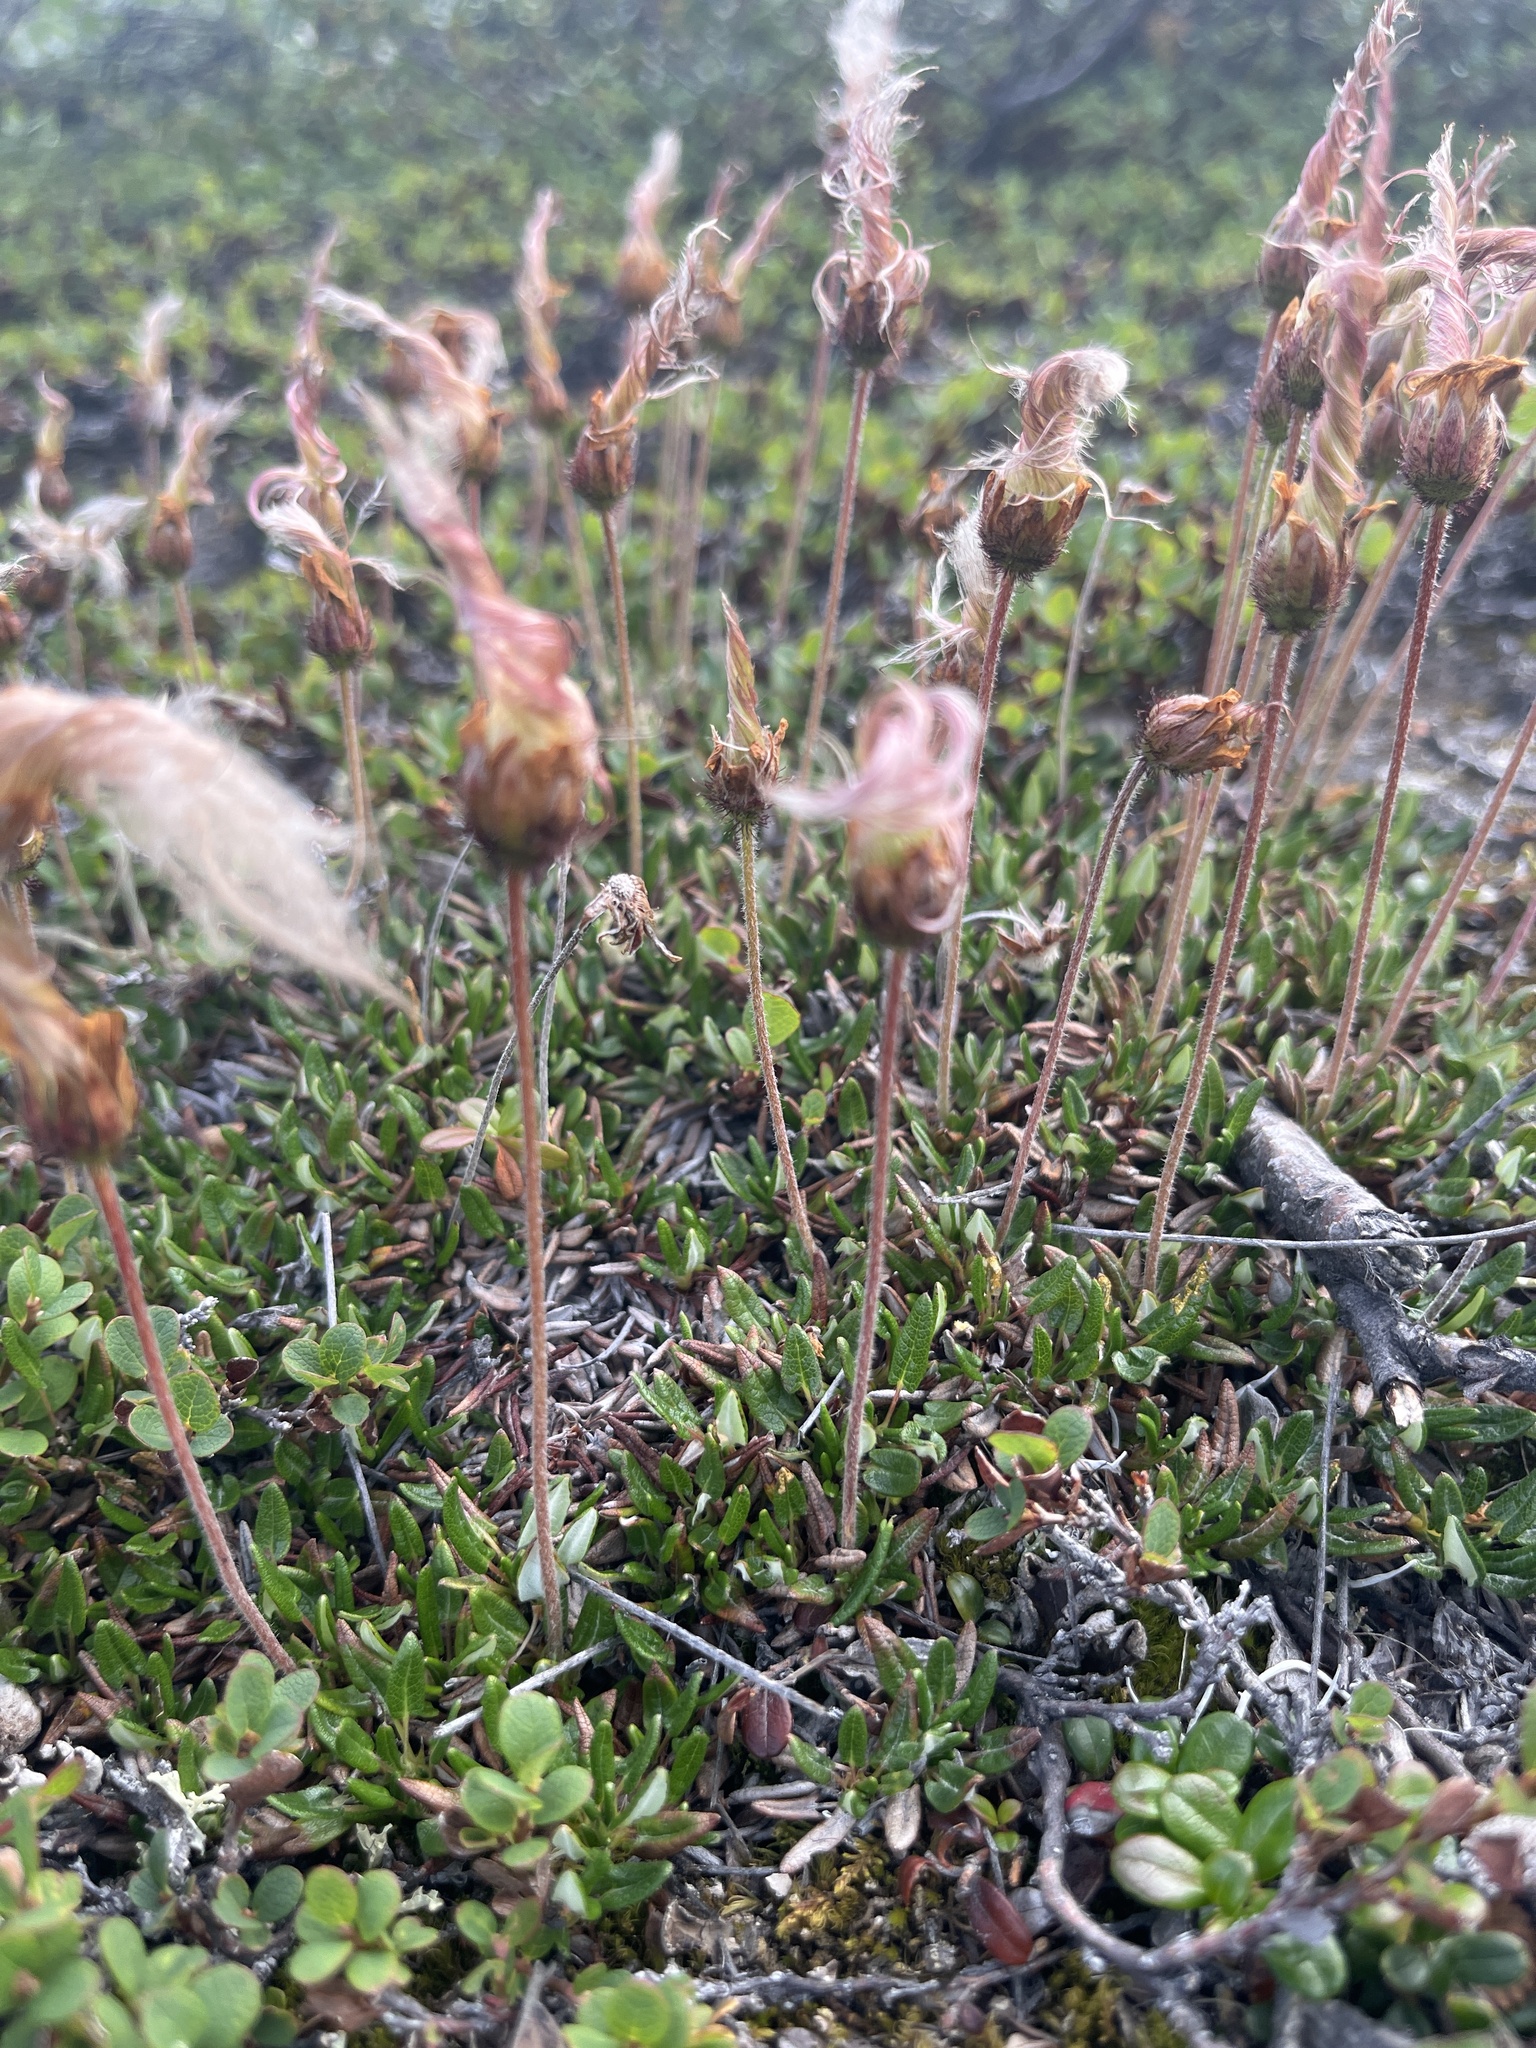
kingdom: Plantae
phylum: Tracheophyta
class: Magnoliopsida
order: Rosales
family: Rosaceae
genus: Dryas
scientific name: Dryas integrifolia
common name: Entire-leaved mountain avens
